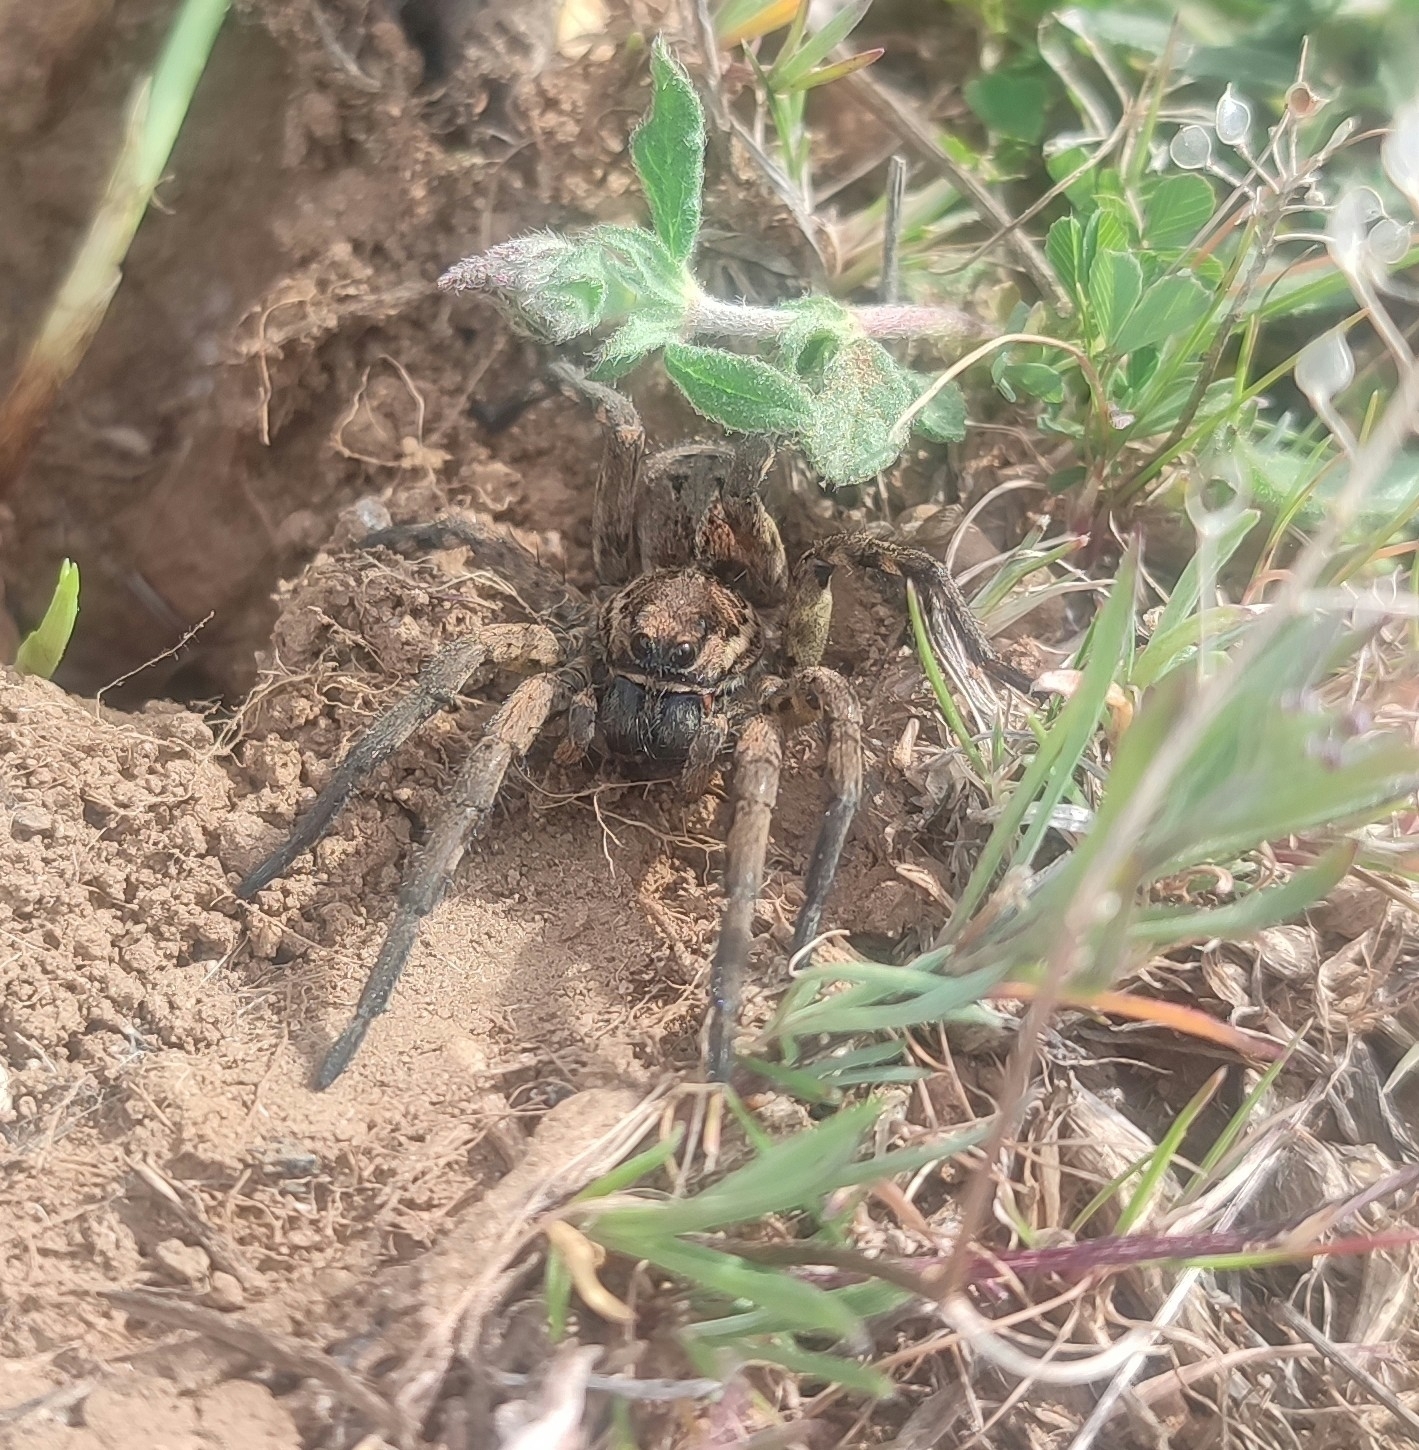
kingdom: Animalia
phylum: Arthropoda
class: Arachnida
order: Araneae
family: Lycosidae
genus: Lycosa
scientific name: Lycosa tarantula
